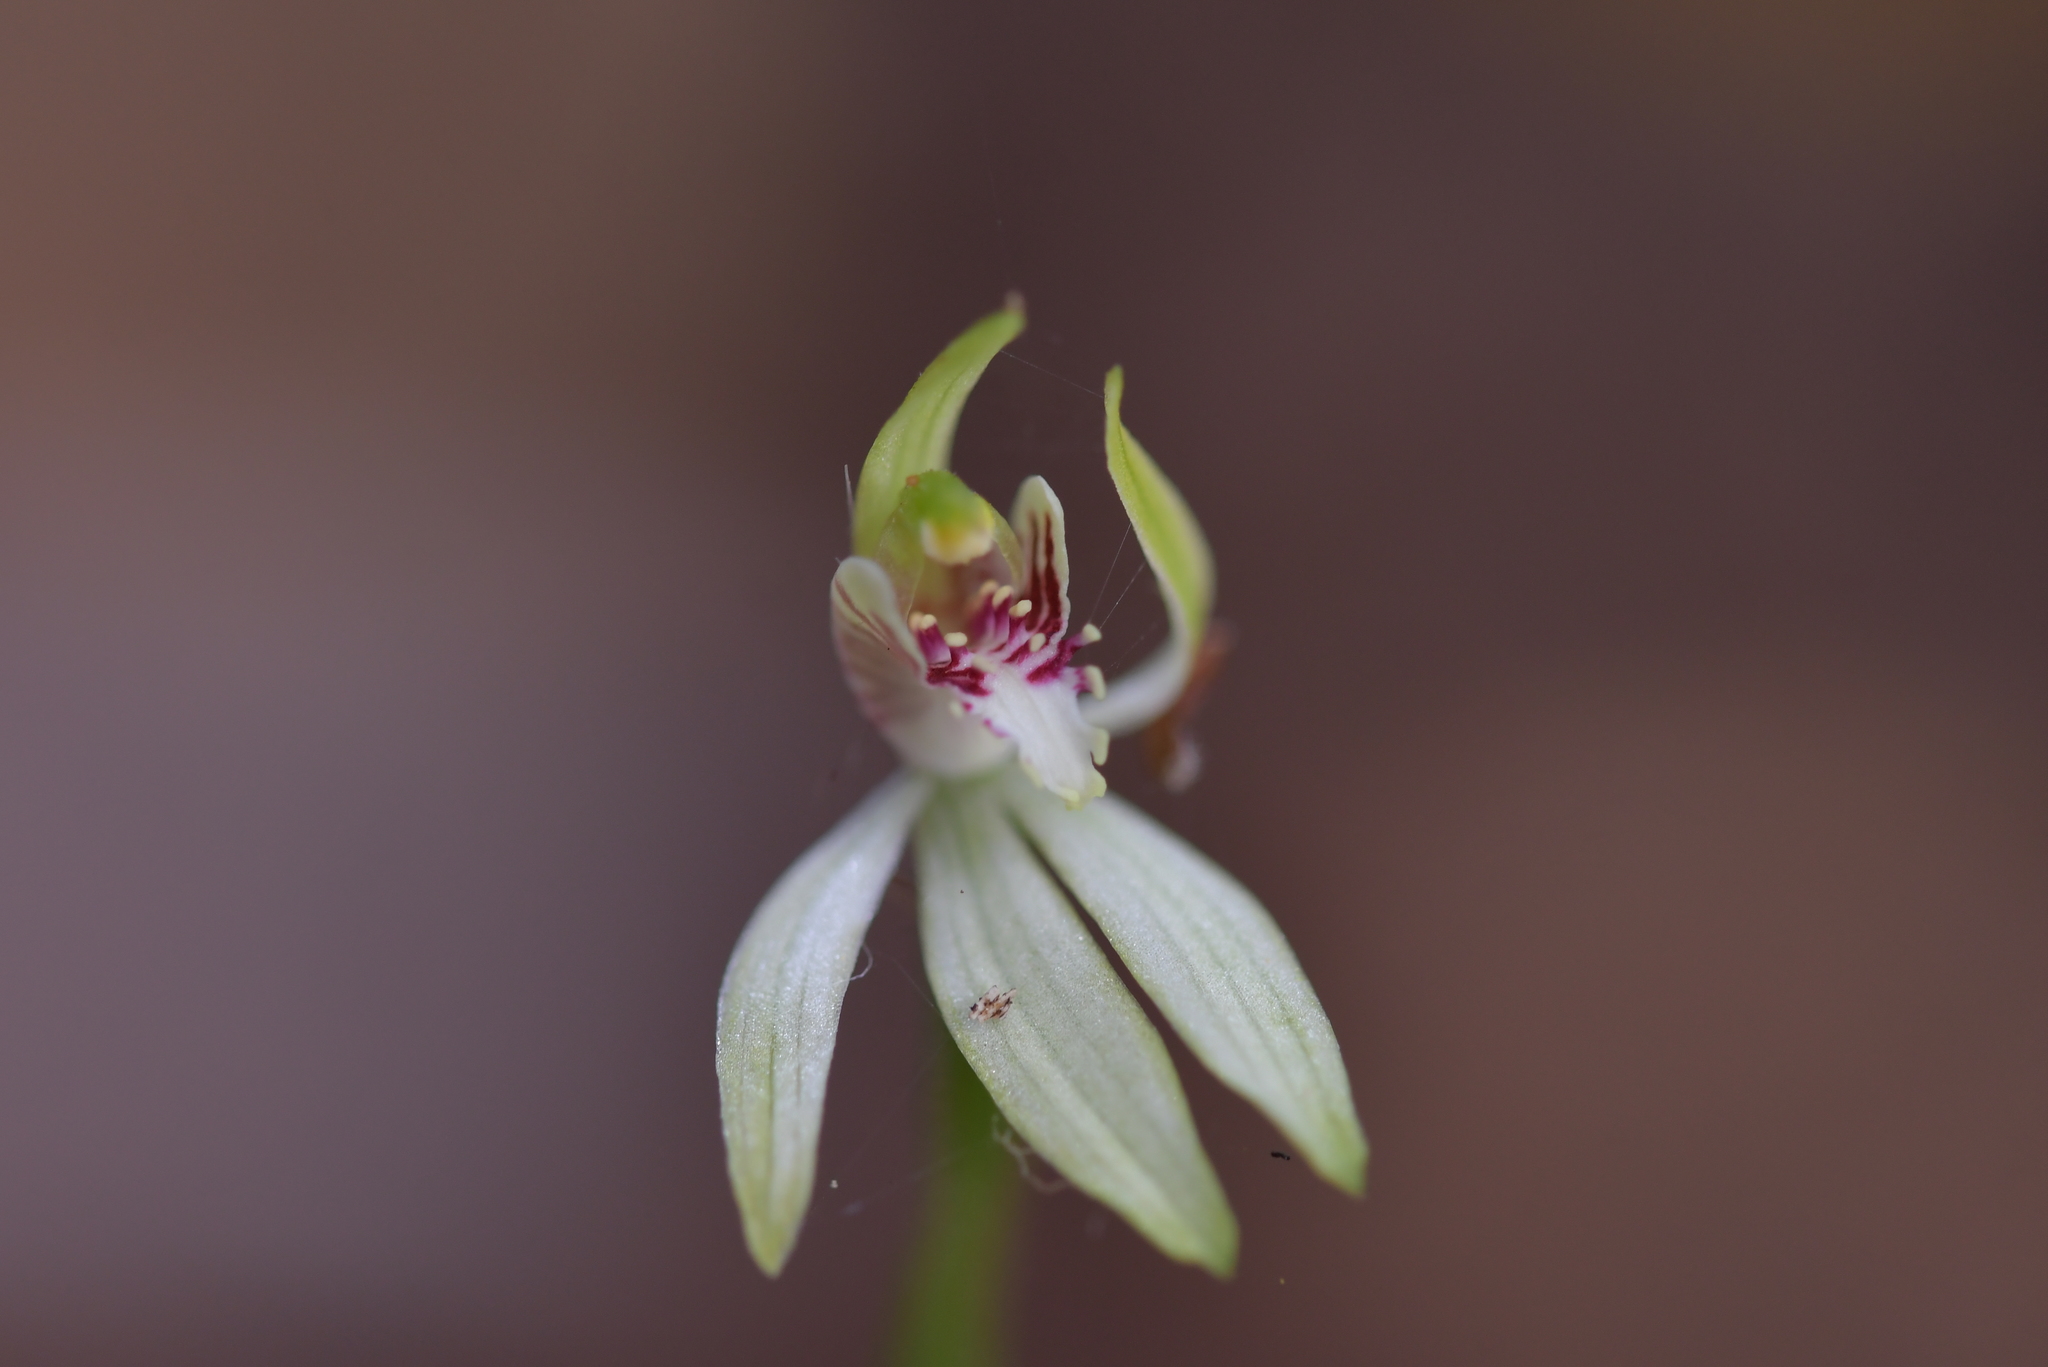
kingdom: Plantae
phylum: Tracheophyta
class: Liliopsida
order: Asparagales
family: Orchidaceae
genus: Caladenia
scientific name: Caladenia chlorostyla
